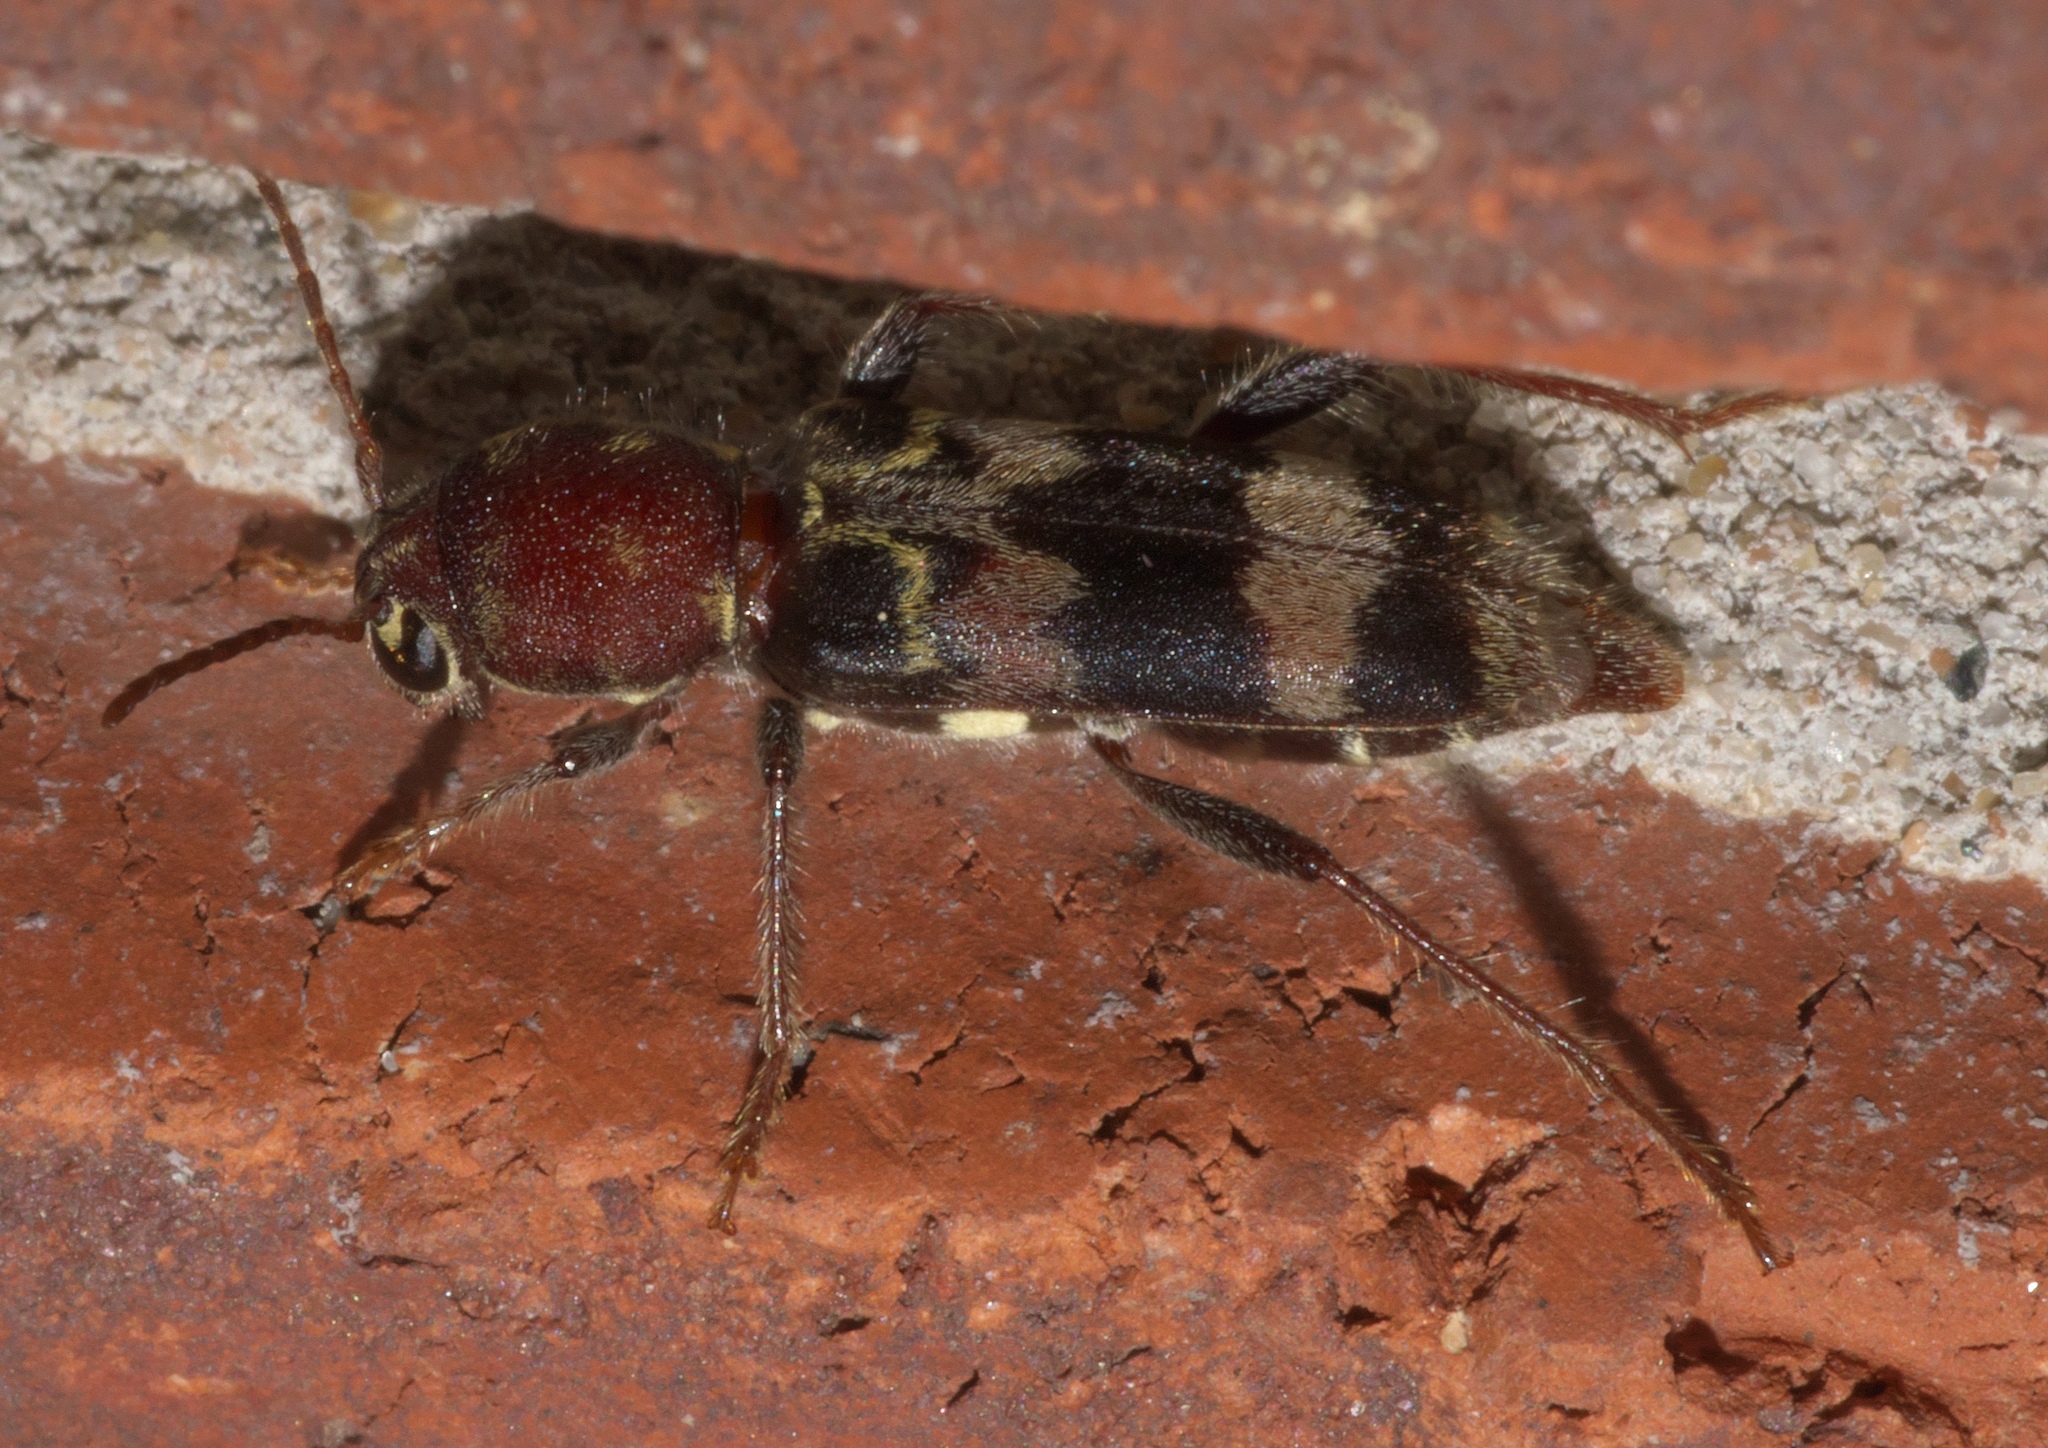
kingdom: Animalia
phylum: Arthropoda
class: Insecta
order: Coleoptera
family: Cerambycidae
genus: Xylotrechus
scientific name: Xylotrechus colonus
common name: Long-horned beetle
